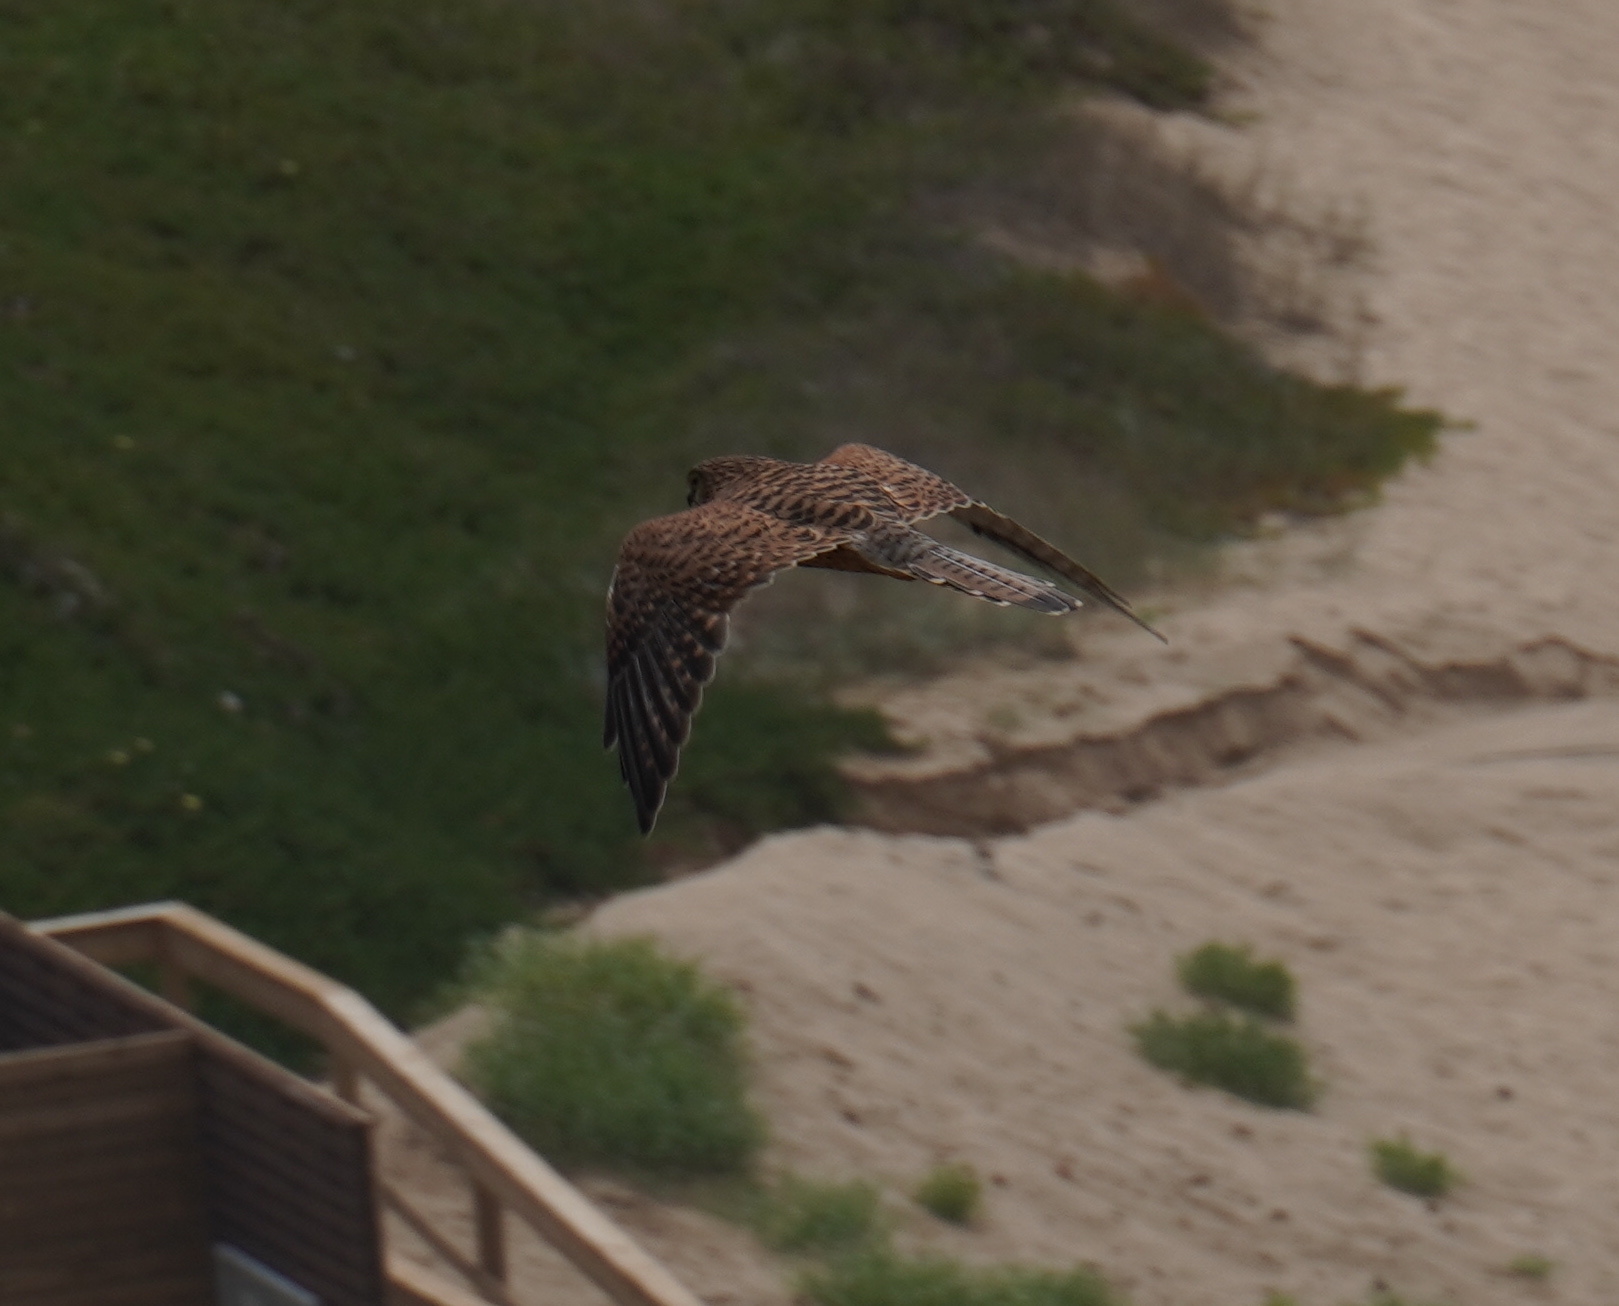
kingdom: Animalia
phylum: Chordata
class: Aves
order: Falconiformes
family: Falconidae
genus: Falco
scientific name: Falco tinnunculus
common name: Common kestrel
